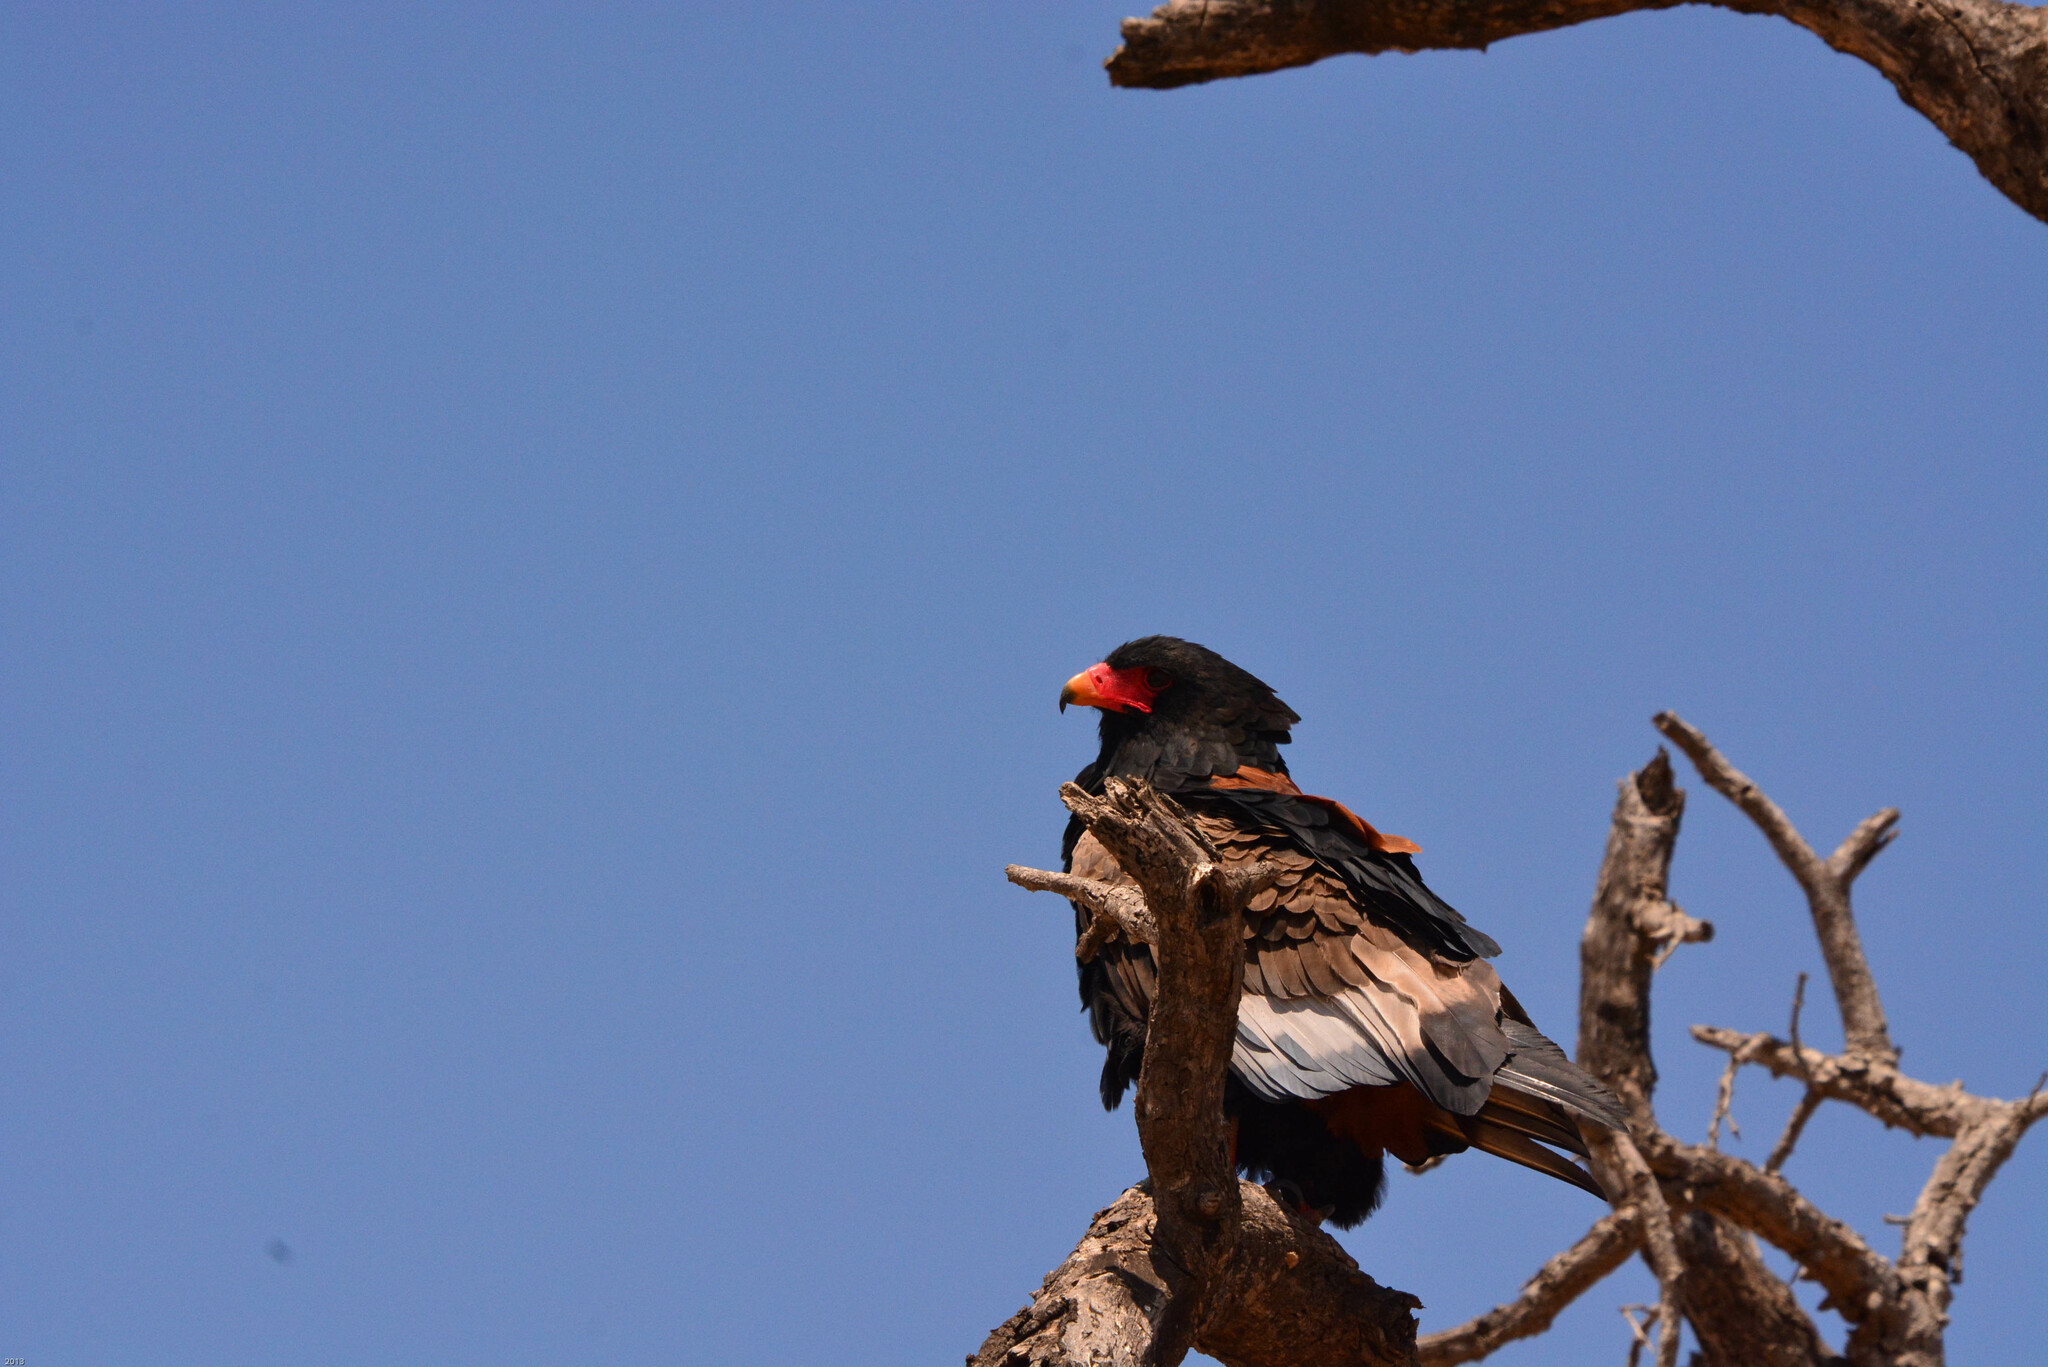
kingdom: Animalia
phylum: Chordata
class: Aves
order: Accipitriformes
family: Accipitridae
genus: Terathopius
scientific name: Terathopius ecaudatus
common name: Bateleur
